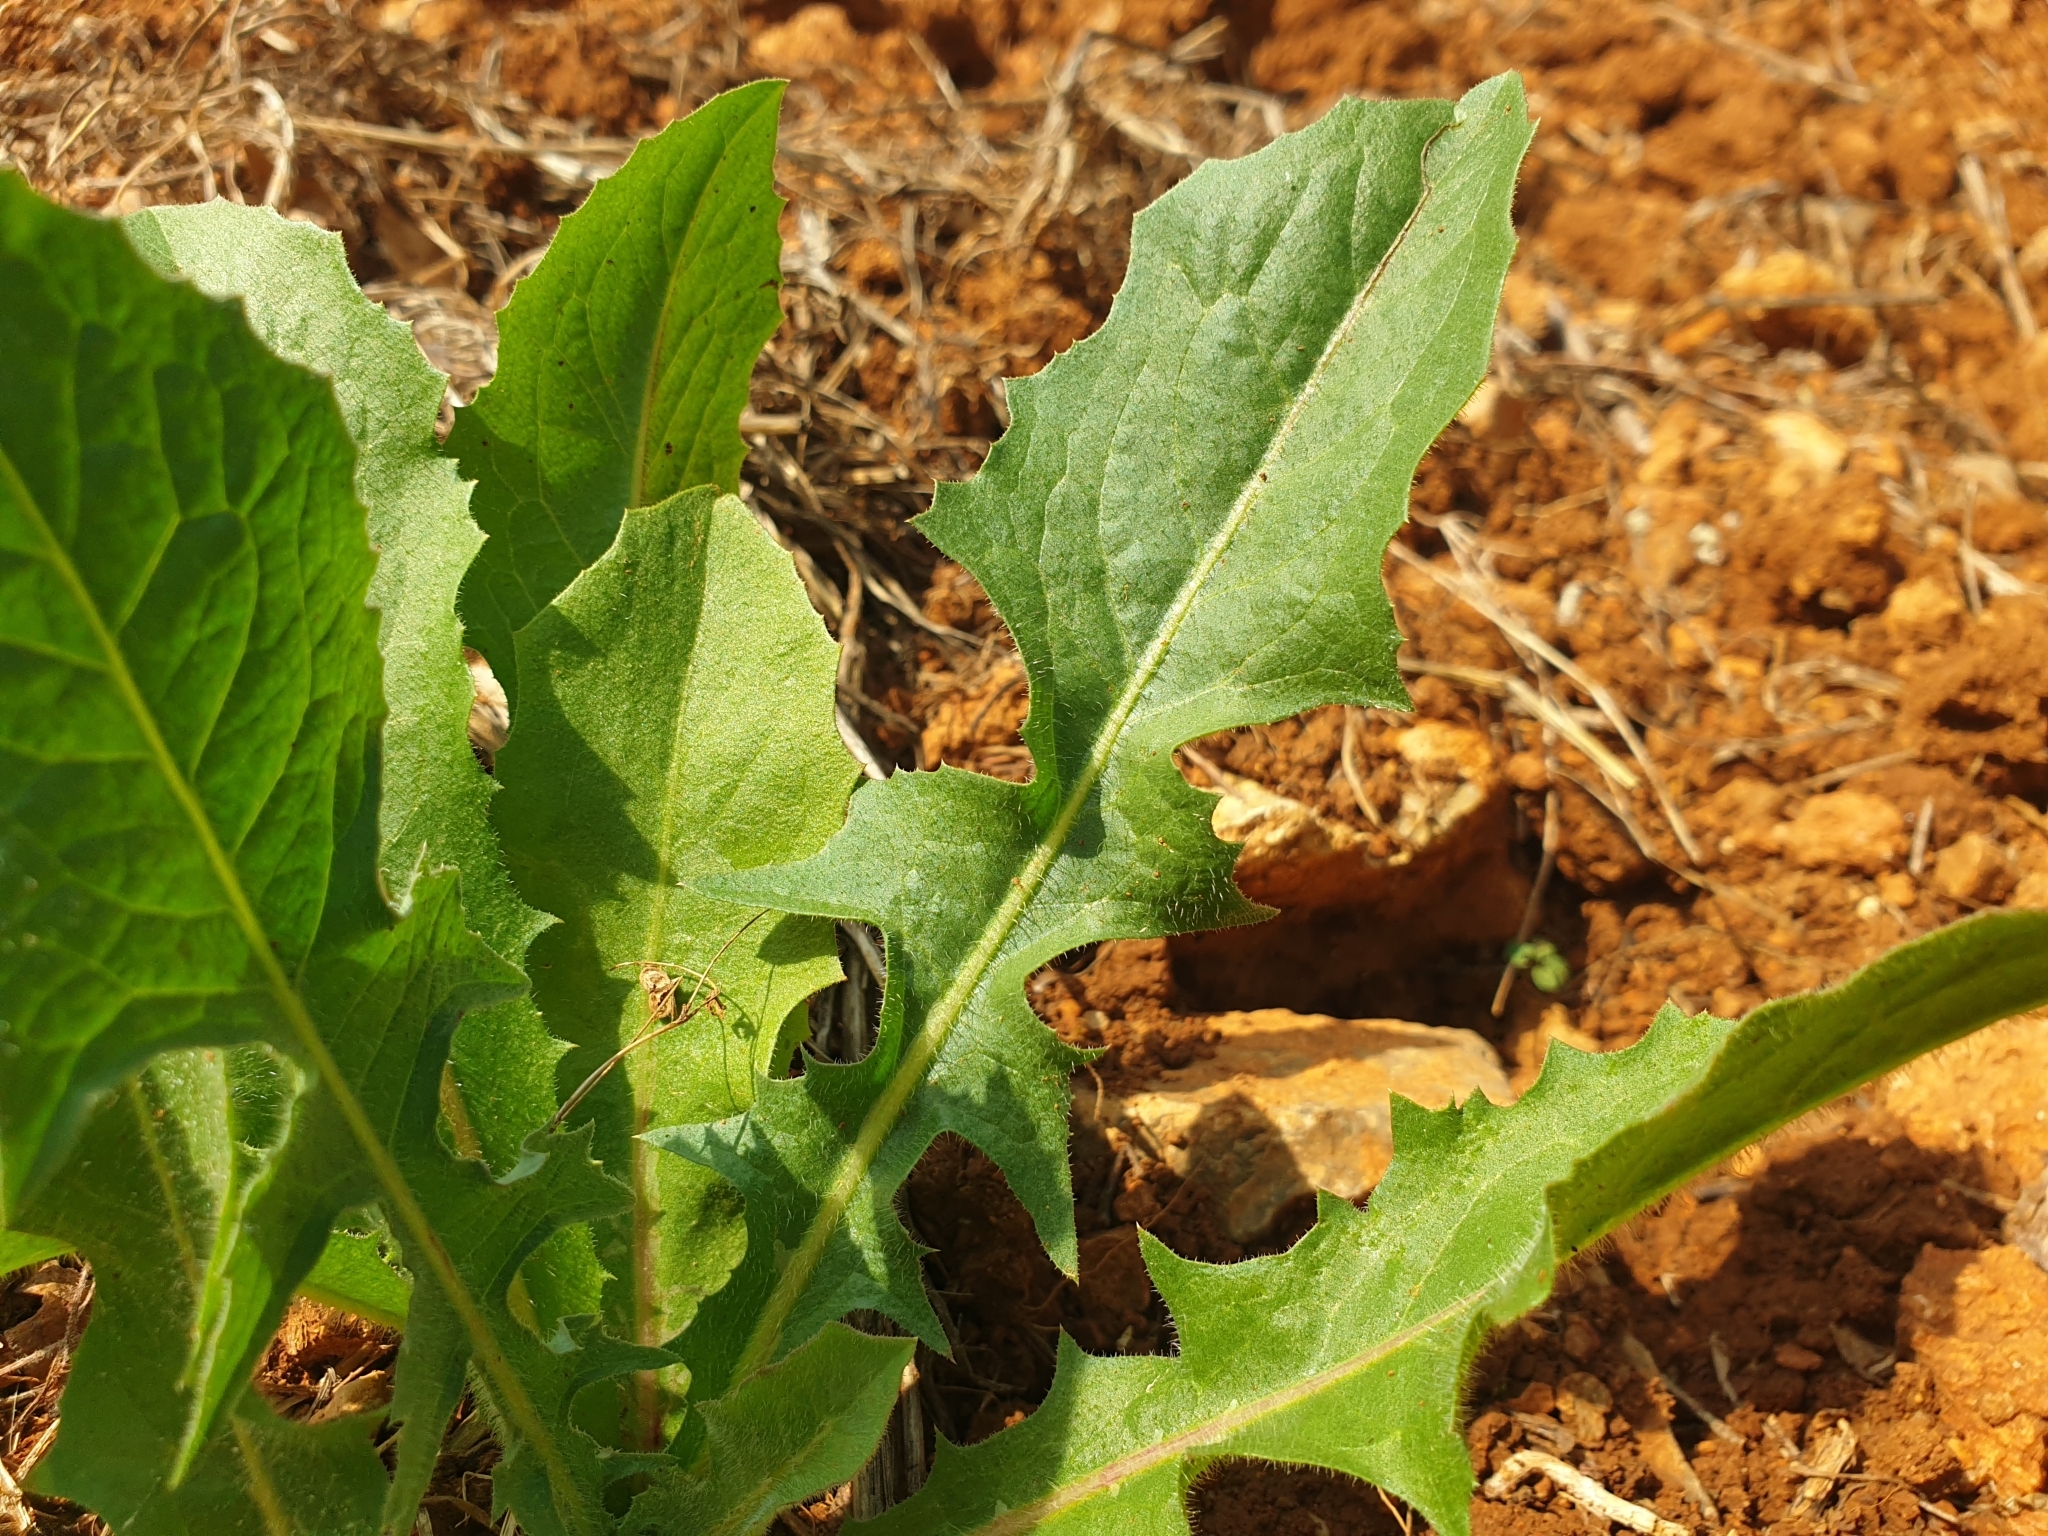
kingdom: Plantae
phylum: Tracheophyta
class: Magnoliopsida
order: Asterales
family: Asteraceae
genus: Cichorium
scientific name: Cichorium intybus
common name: Chicory
